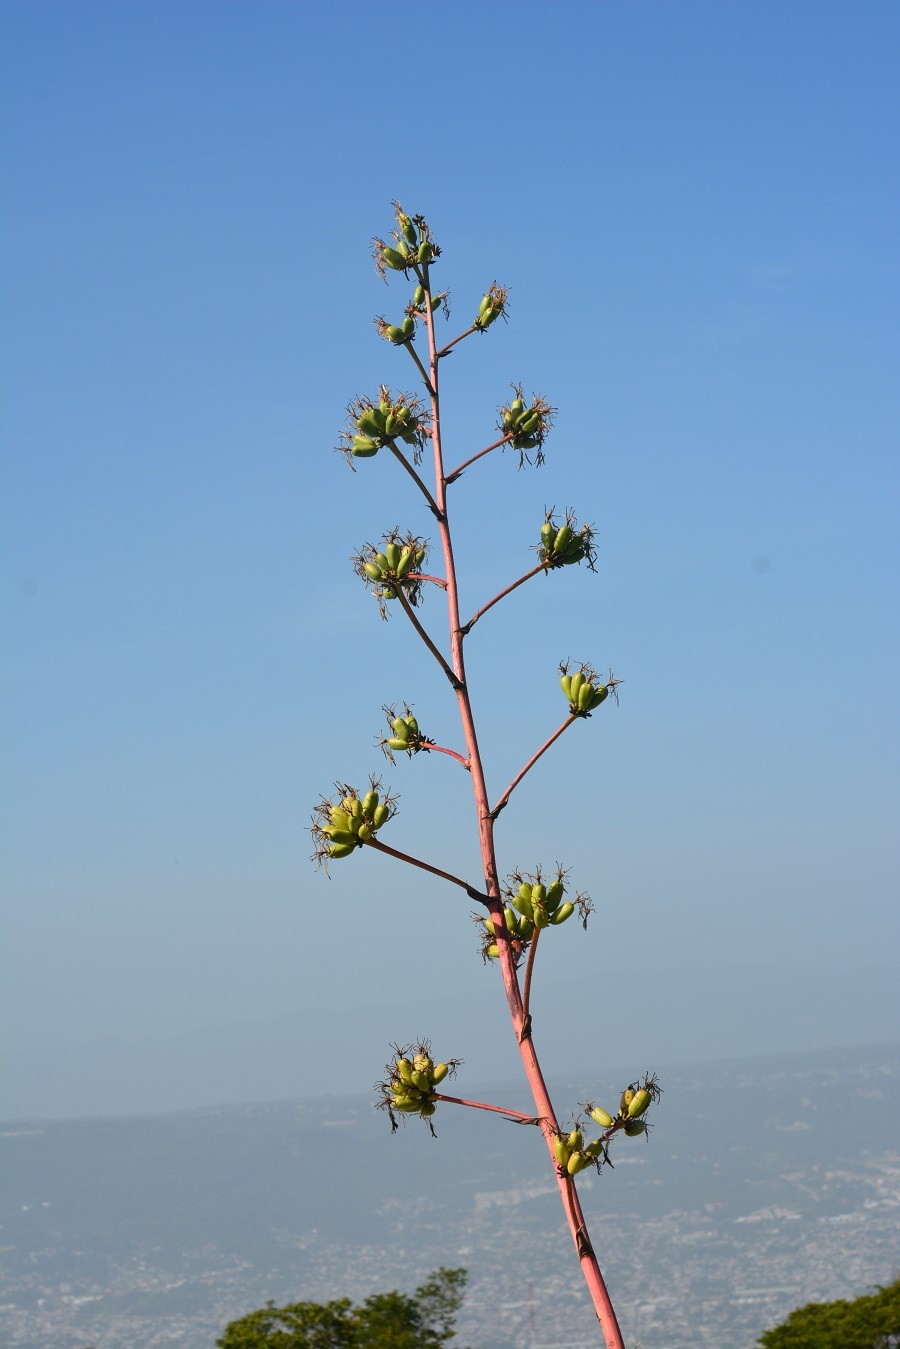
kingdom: Plantae
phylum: Tracheophyta
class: Liliopsida
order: Asparagales
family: Asparagaceae
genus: Agave
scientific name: Agave kewensis
